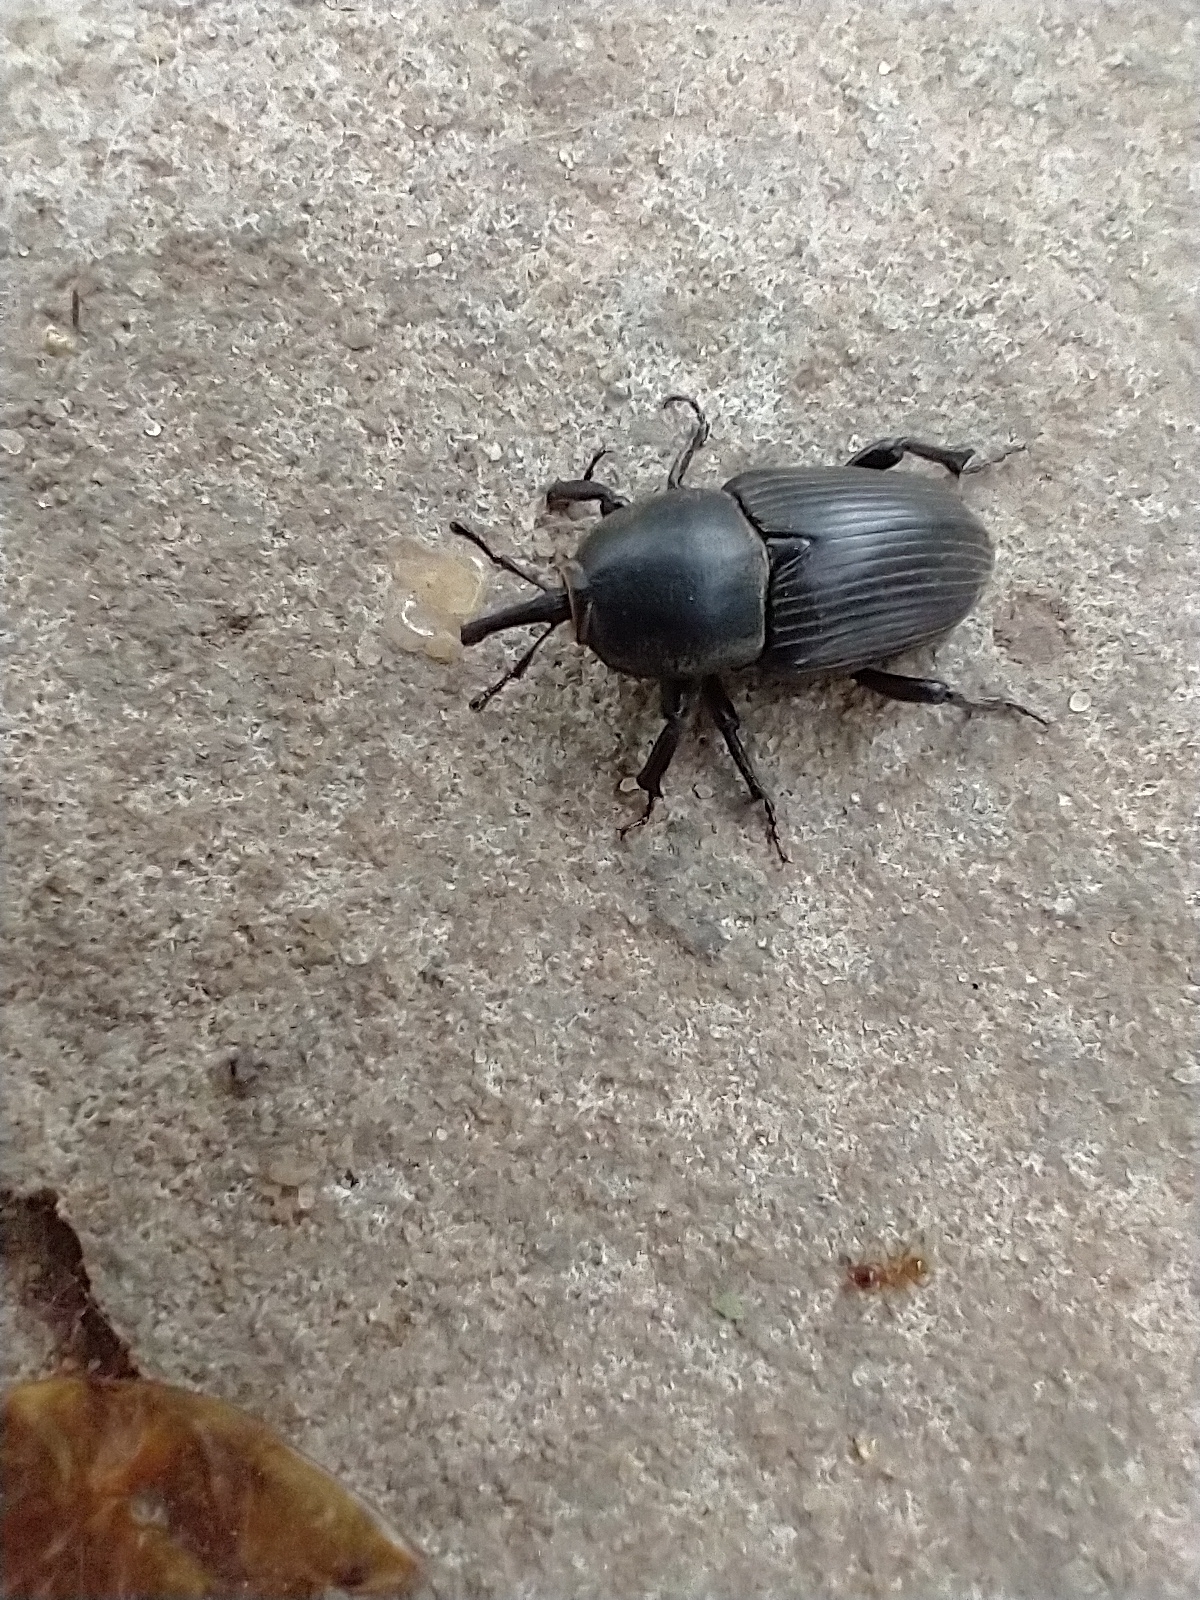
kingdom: Animalia
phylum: Arthropoda
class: Insecta
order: Coleoptera
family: Dryophthoridae
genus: Sphenophorus
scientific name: Sphenophorus
